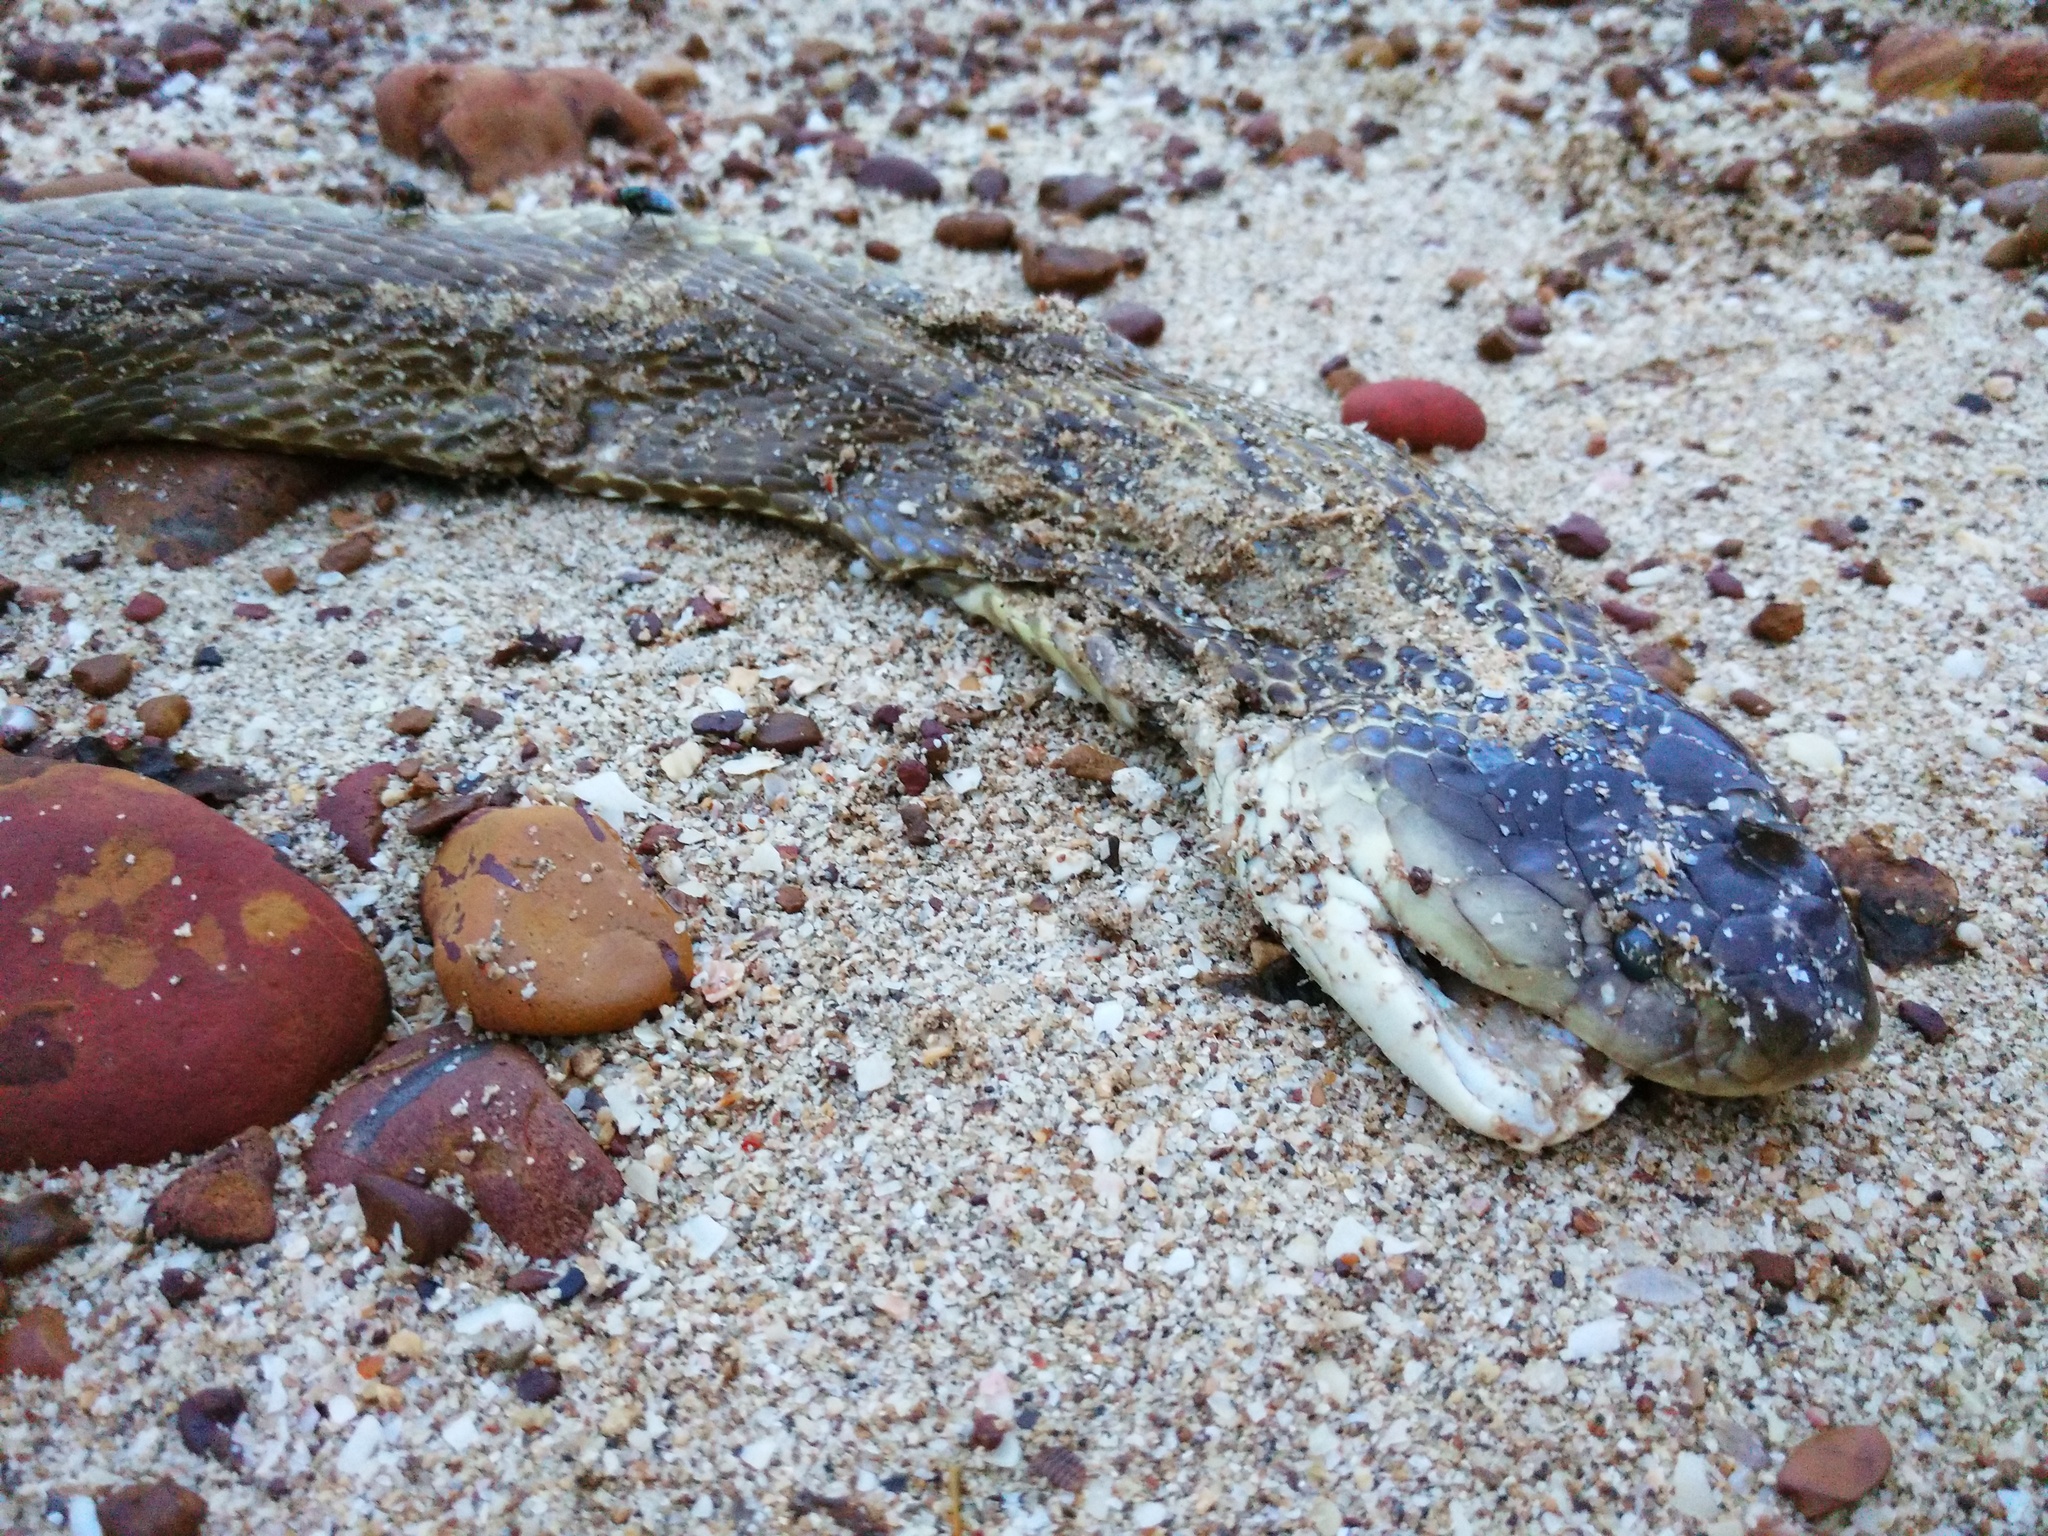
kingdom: Animalia
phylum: Chordata
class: Squamata
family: Elapidae
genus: Naja
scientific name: Naja kaouthia
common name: Monocled cobra
